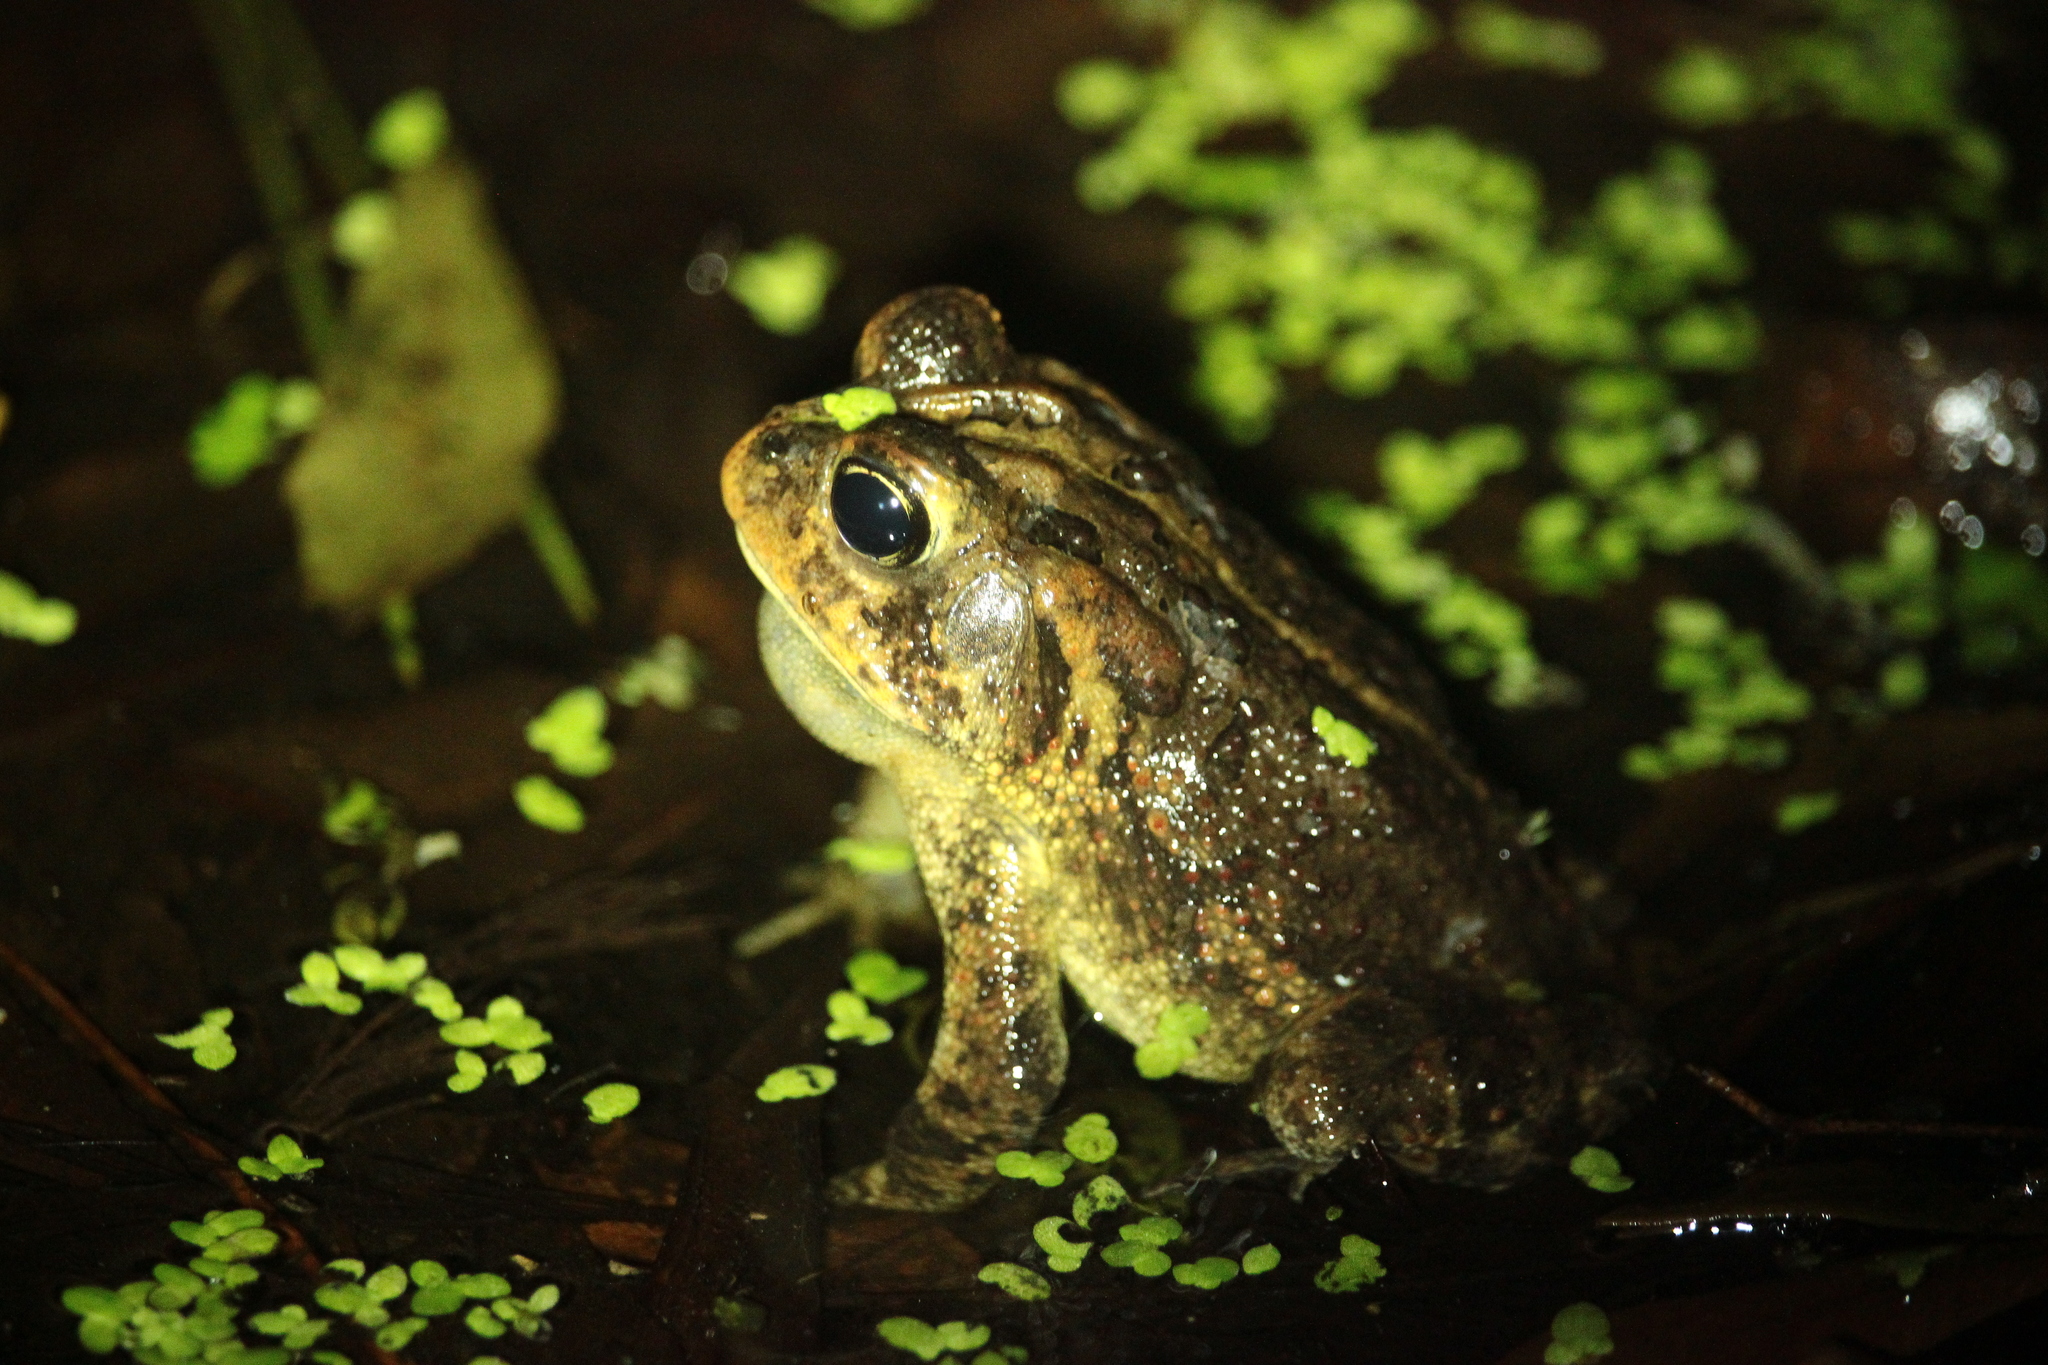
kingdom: Animalia
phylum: Chordata
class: Amphibia
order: Anura
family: Bufonidae
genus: Anaxyrus
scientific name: Anaxyrus terrestris
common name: Southern toad
